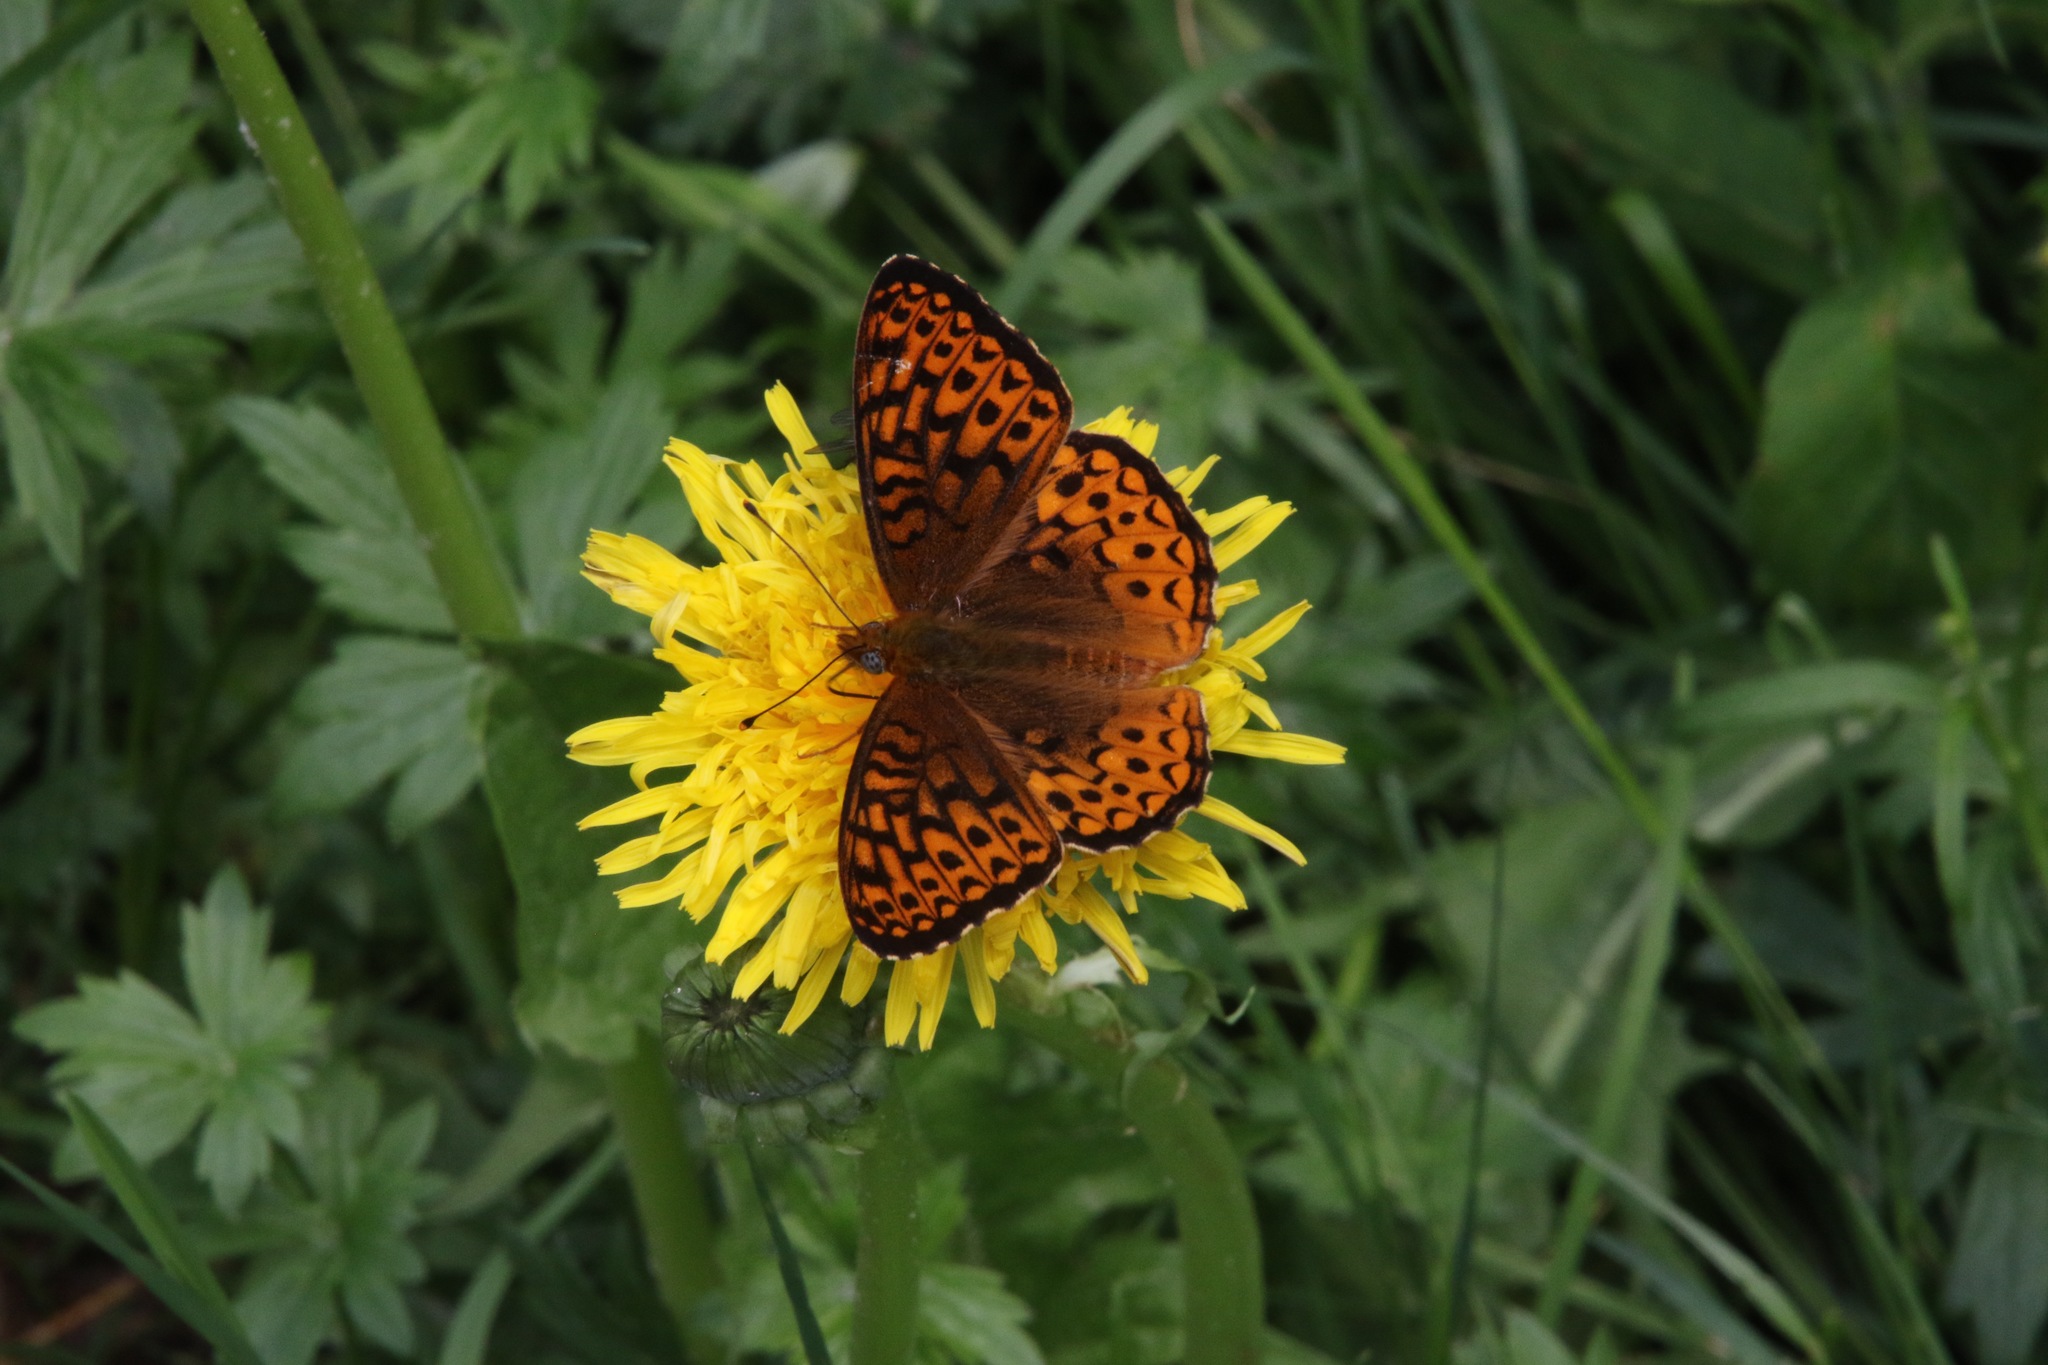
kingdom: Animalia
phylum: Arthropoda
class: Insecta
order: Lepidoptera
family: Nymphalidae
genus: Speyeria
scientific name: Speyeria atlantis
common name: Atlantis fritillary
